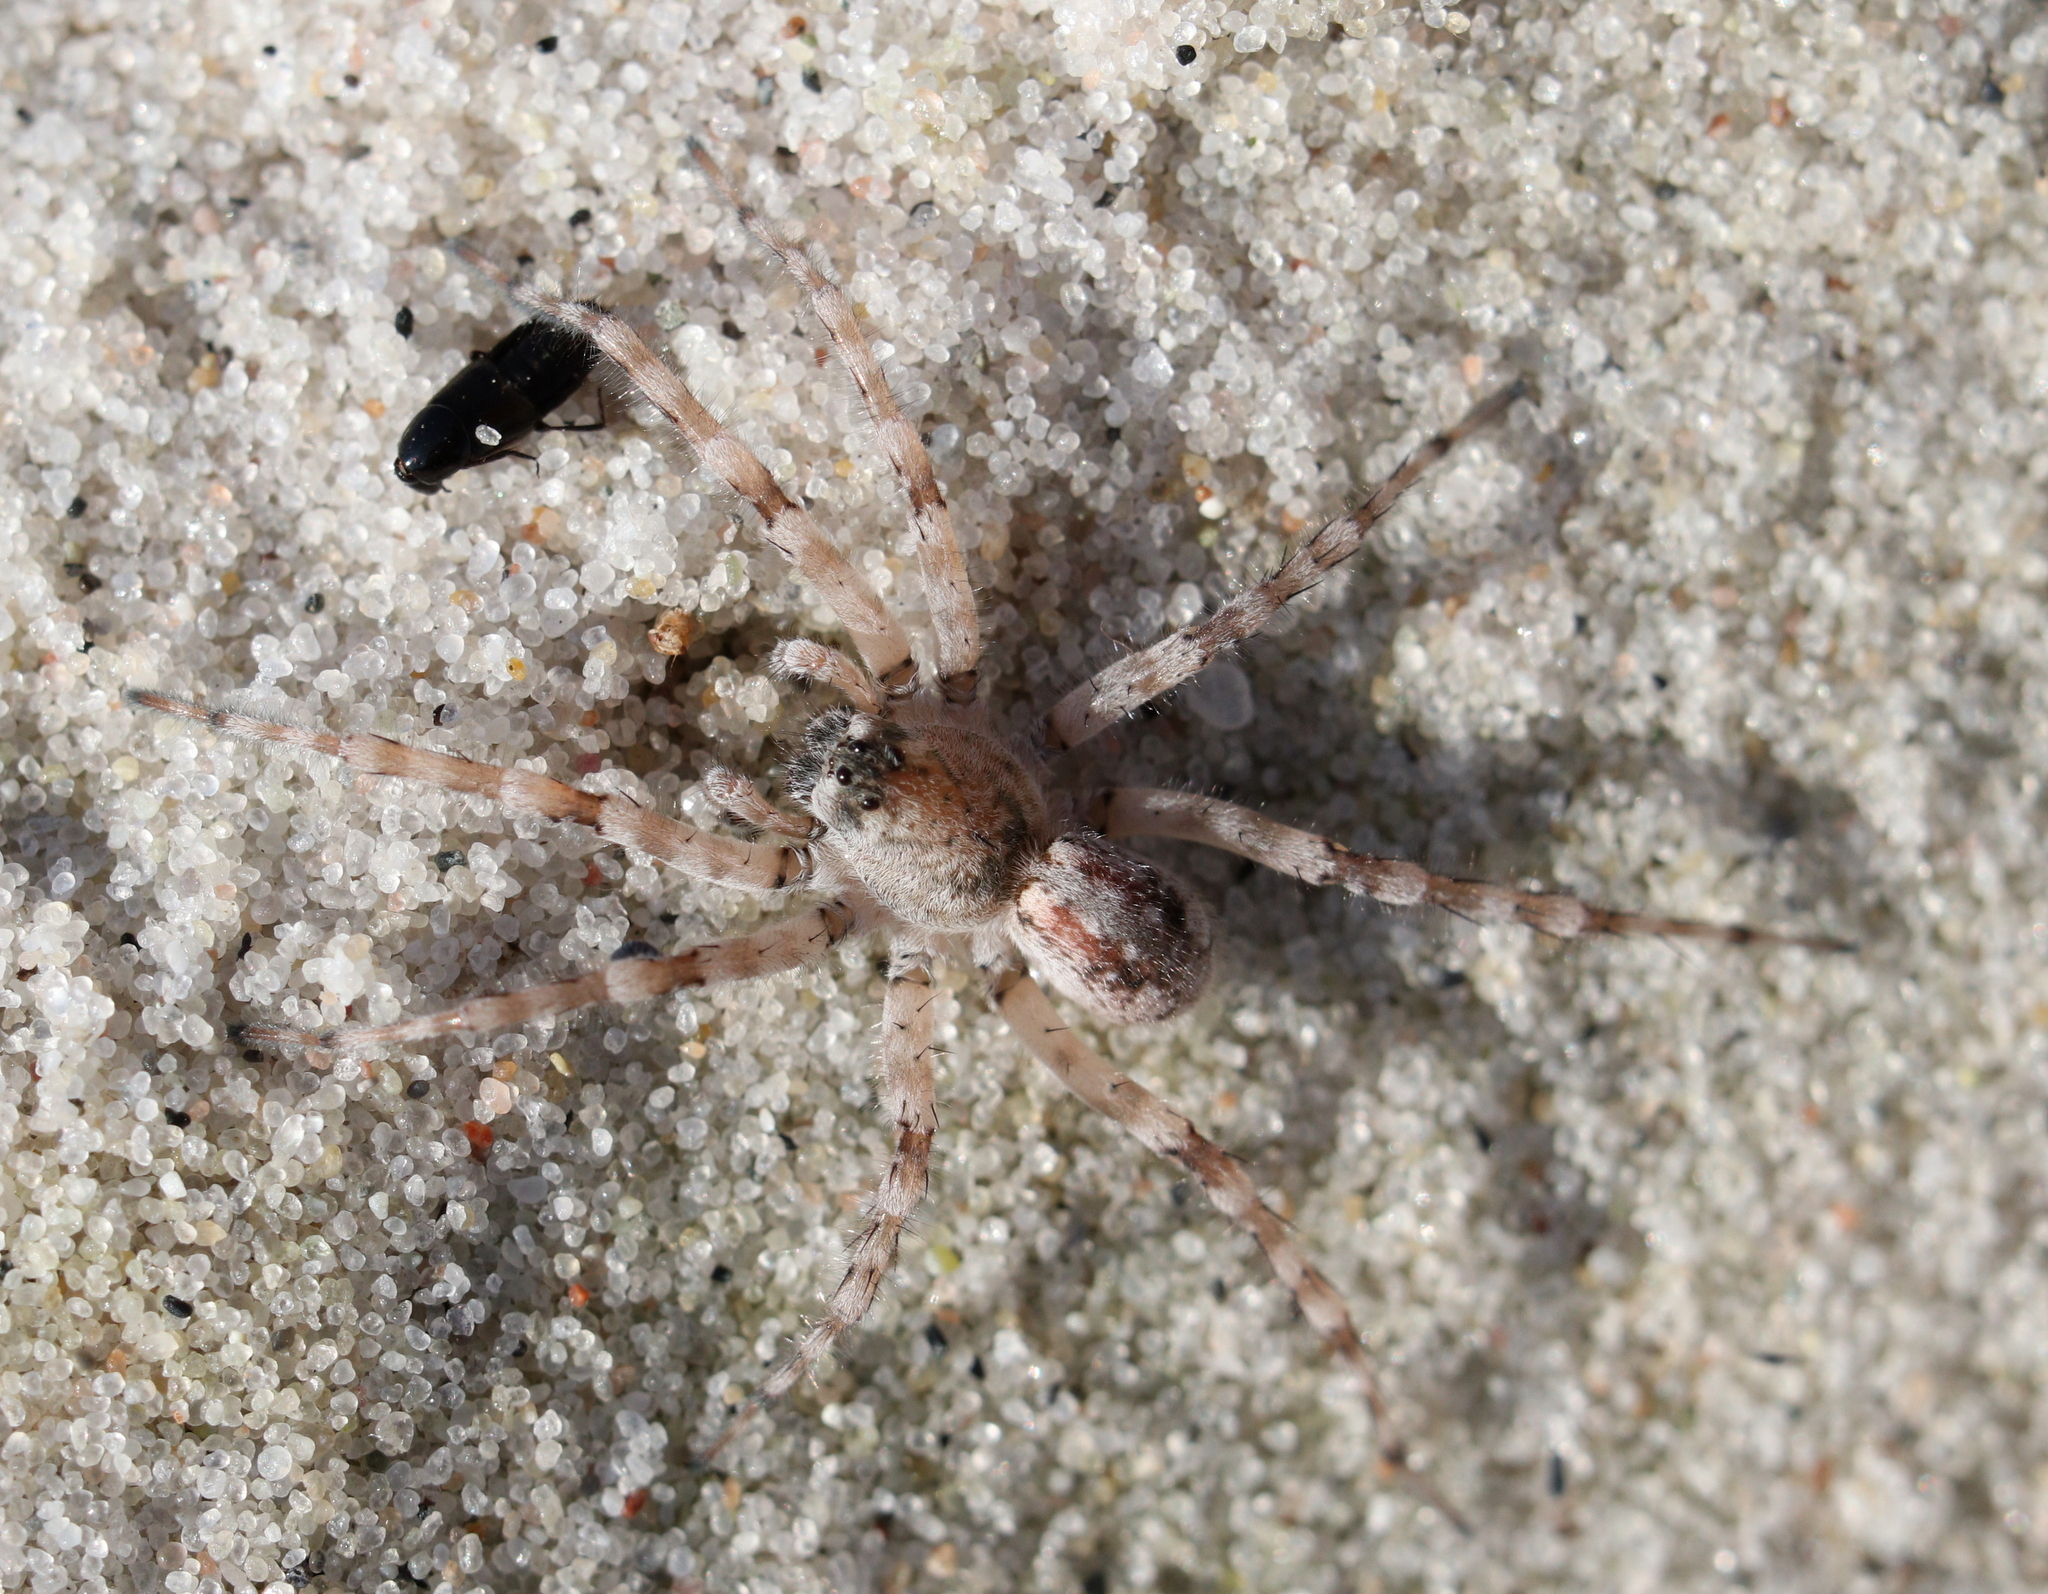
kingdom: Animalia
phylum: Arthropoda
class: Arachnida
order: Araneae
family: Lycosidae
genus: Arctosa
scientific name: Arctosa cinerea
